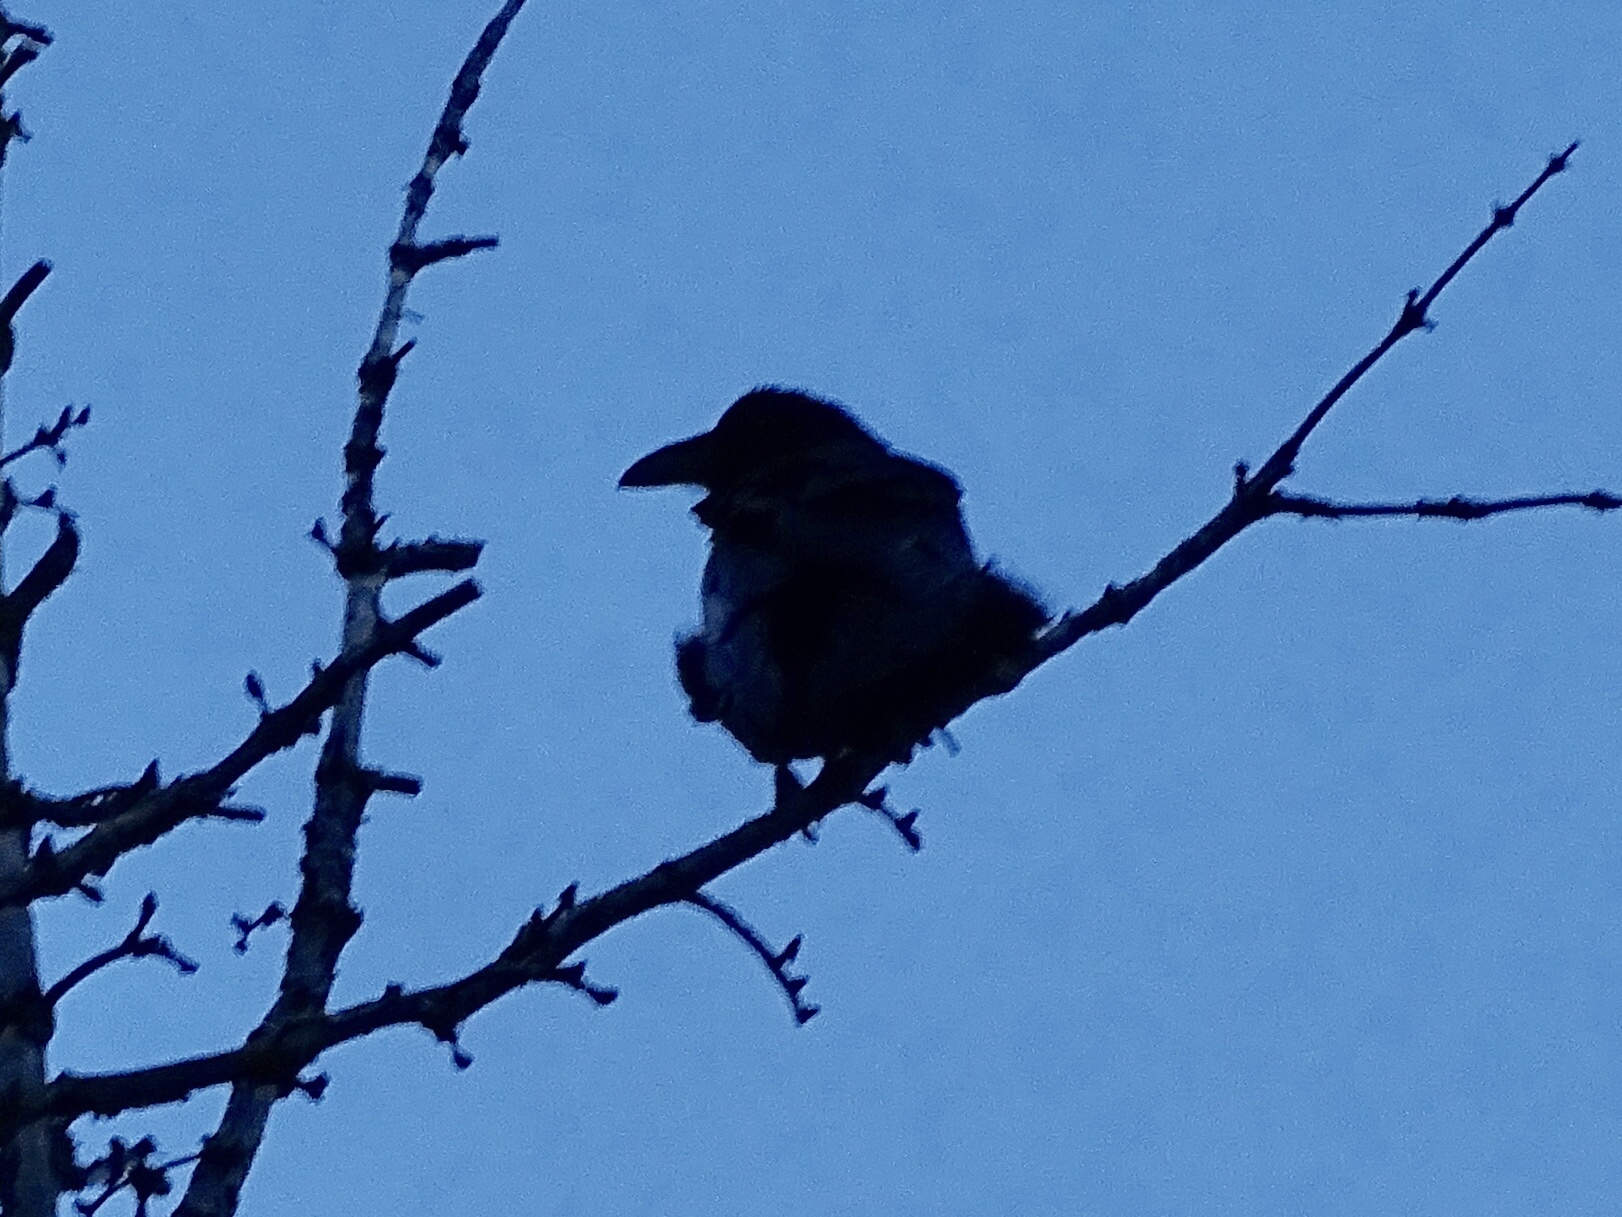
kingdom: Animalia
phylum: Chordata
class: Aves
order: Passeriformes
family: Corvidae
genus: Corvus
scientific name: Corvus corax
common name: Common raven
